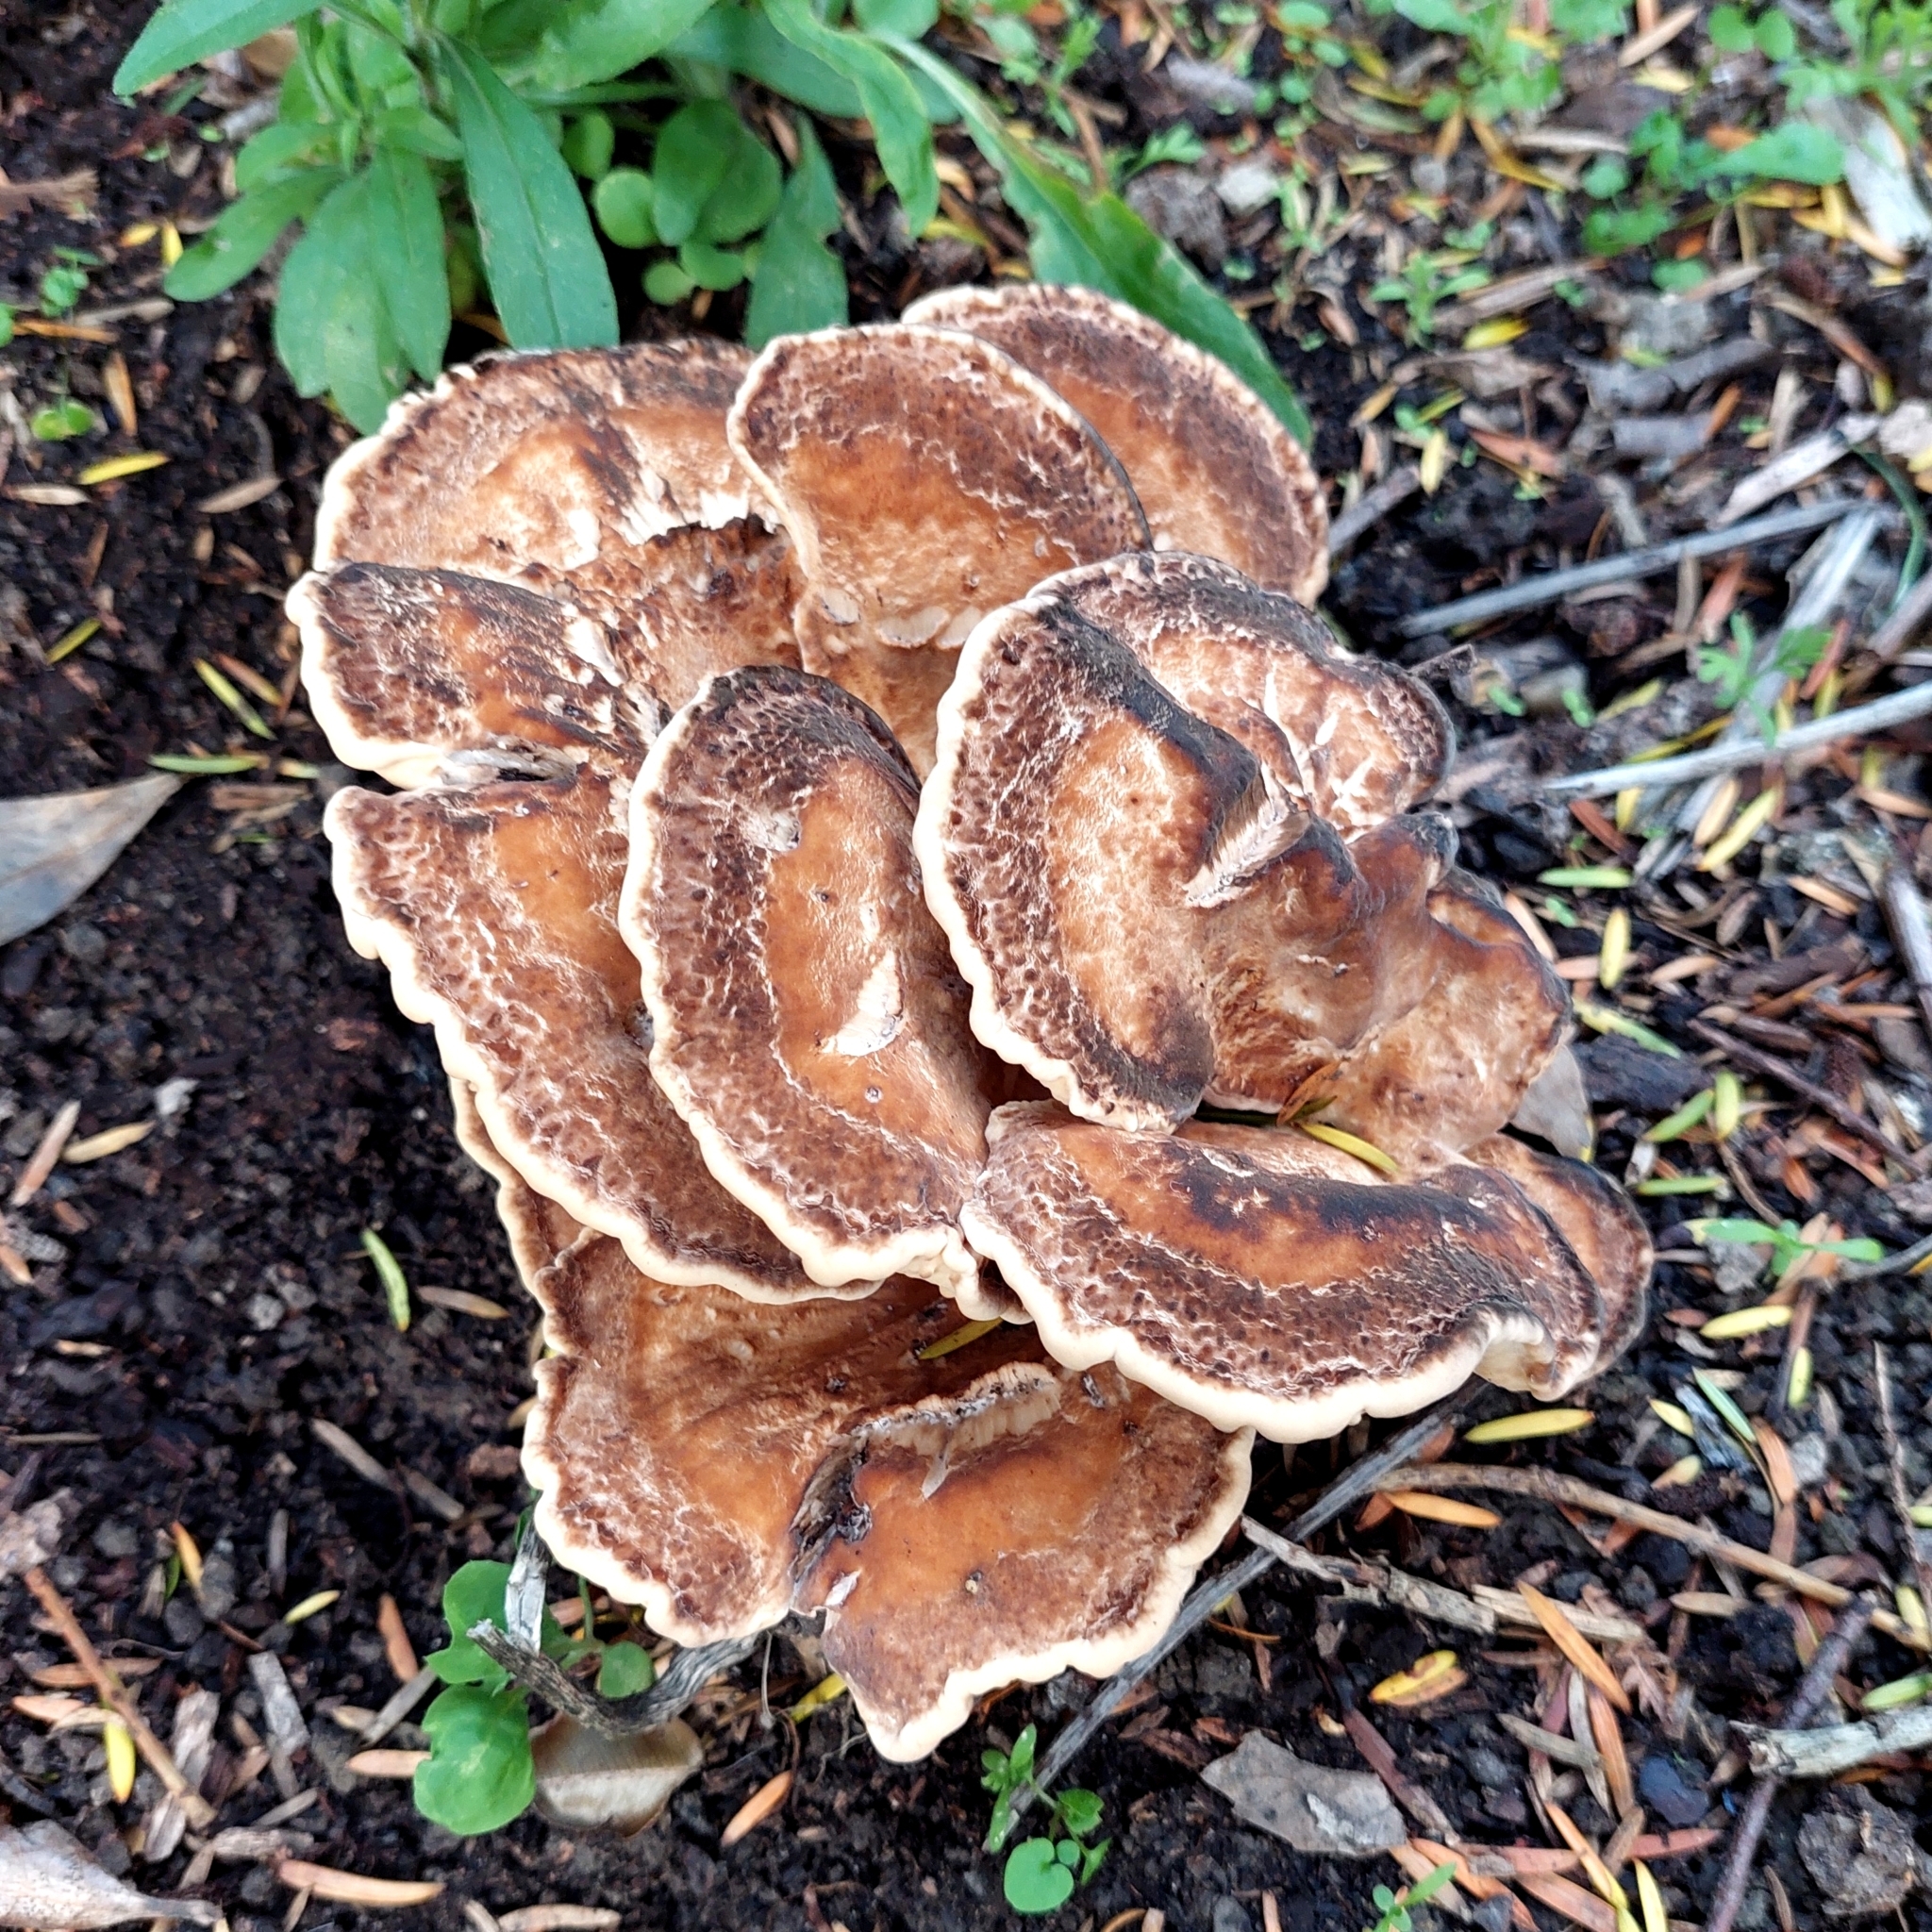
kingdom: Fungi
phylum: Basidiomycota
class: Agaricomycetes
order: Polyporales
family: Meripilaceae
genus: Meripilus
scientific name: Meripilus giganteus
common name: Giant polypore
